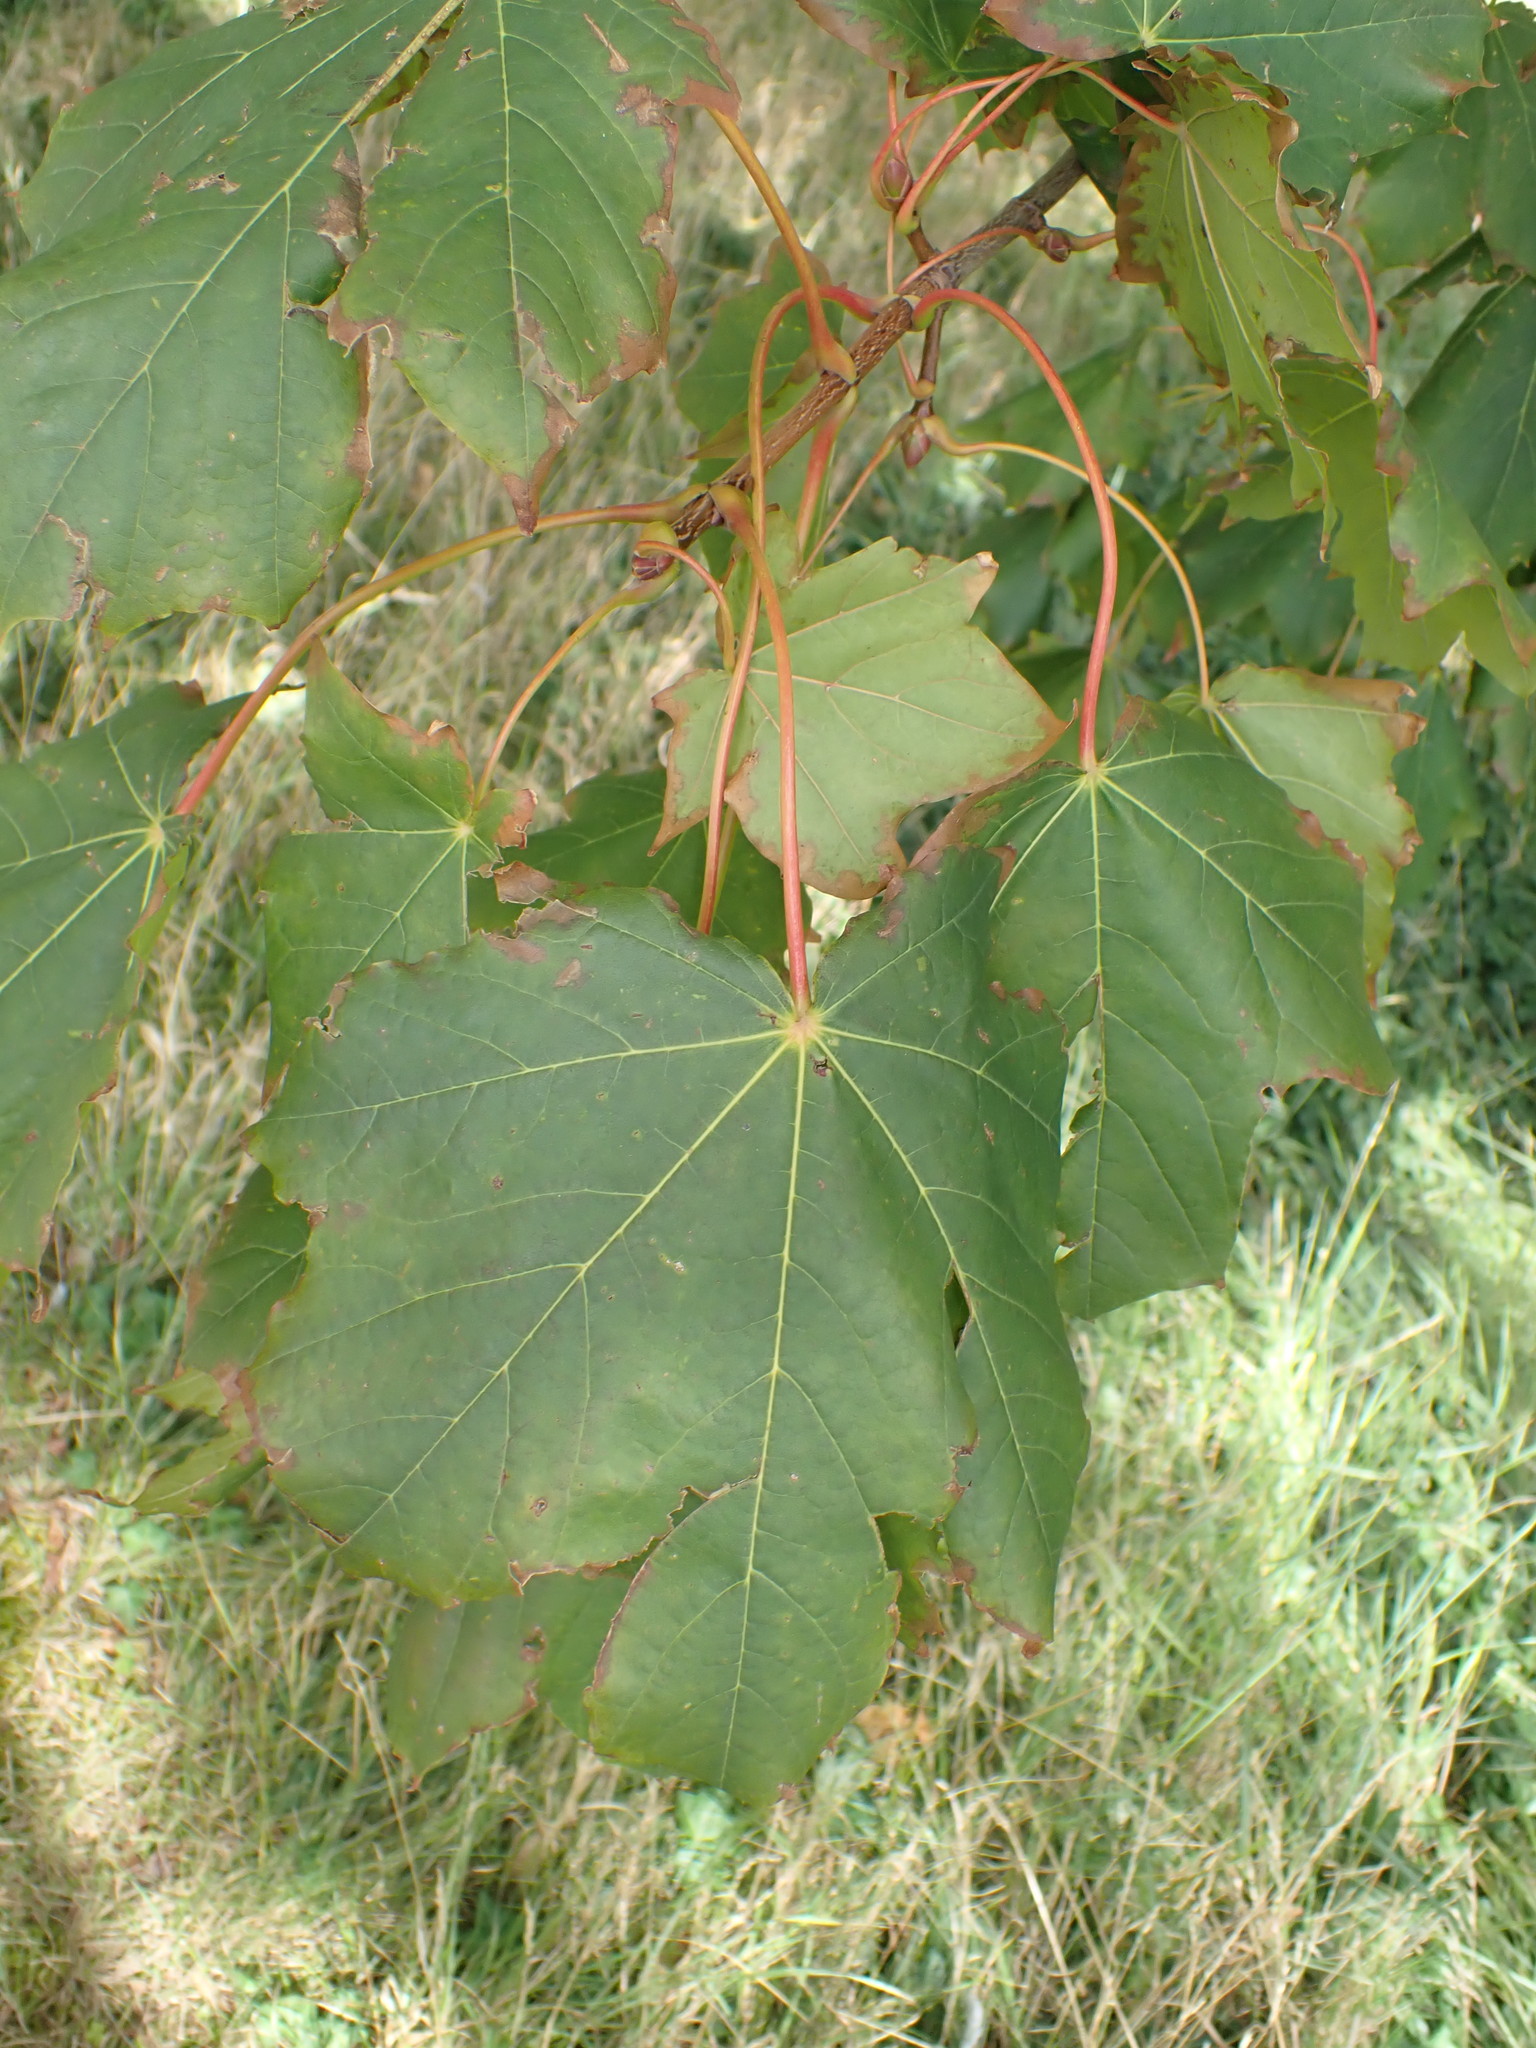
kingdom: Plantae
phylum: Tracheophyta
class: Magnoliopsida
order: Sapindales
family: Sapindaceae
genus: Acer
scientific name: Acer pseudoplatanus
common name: Sycamore
